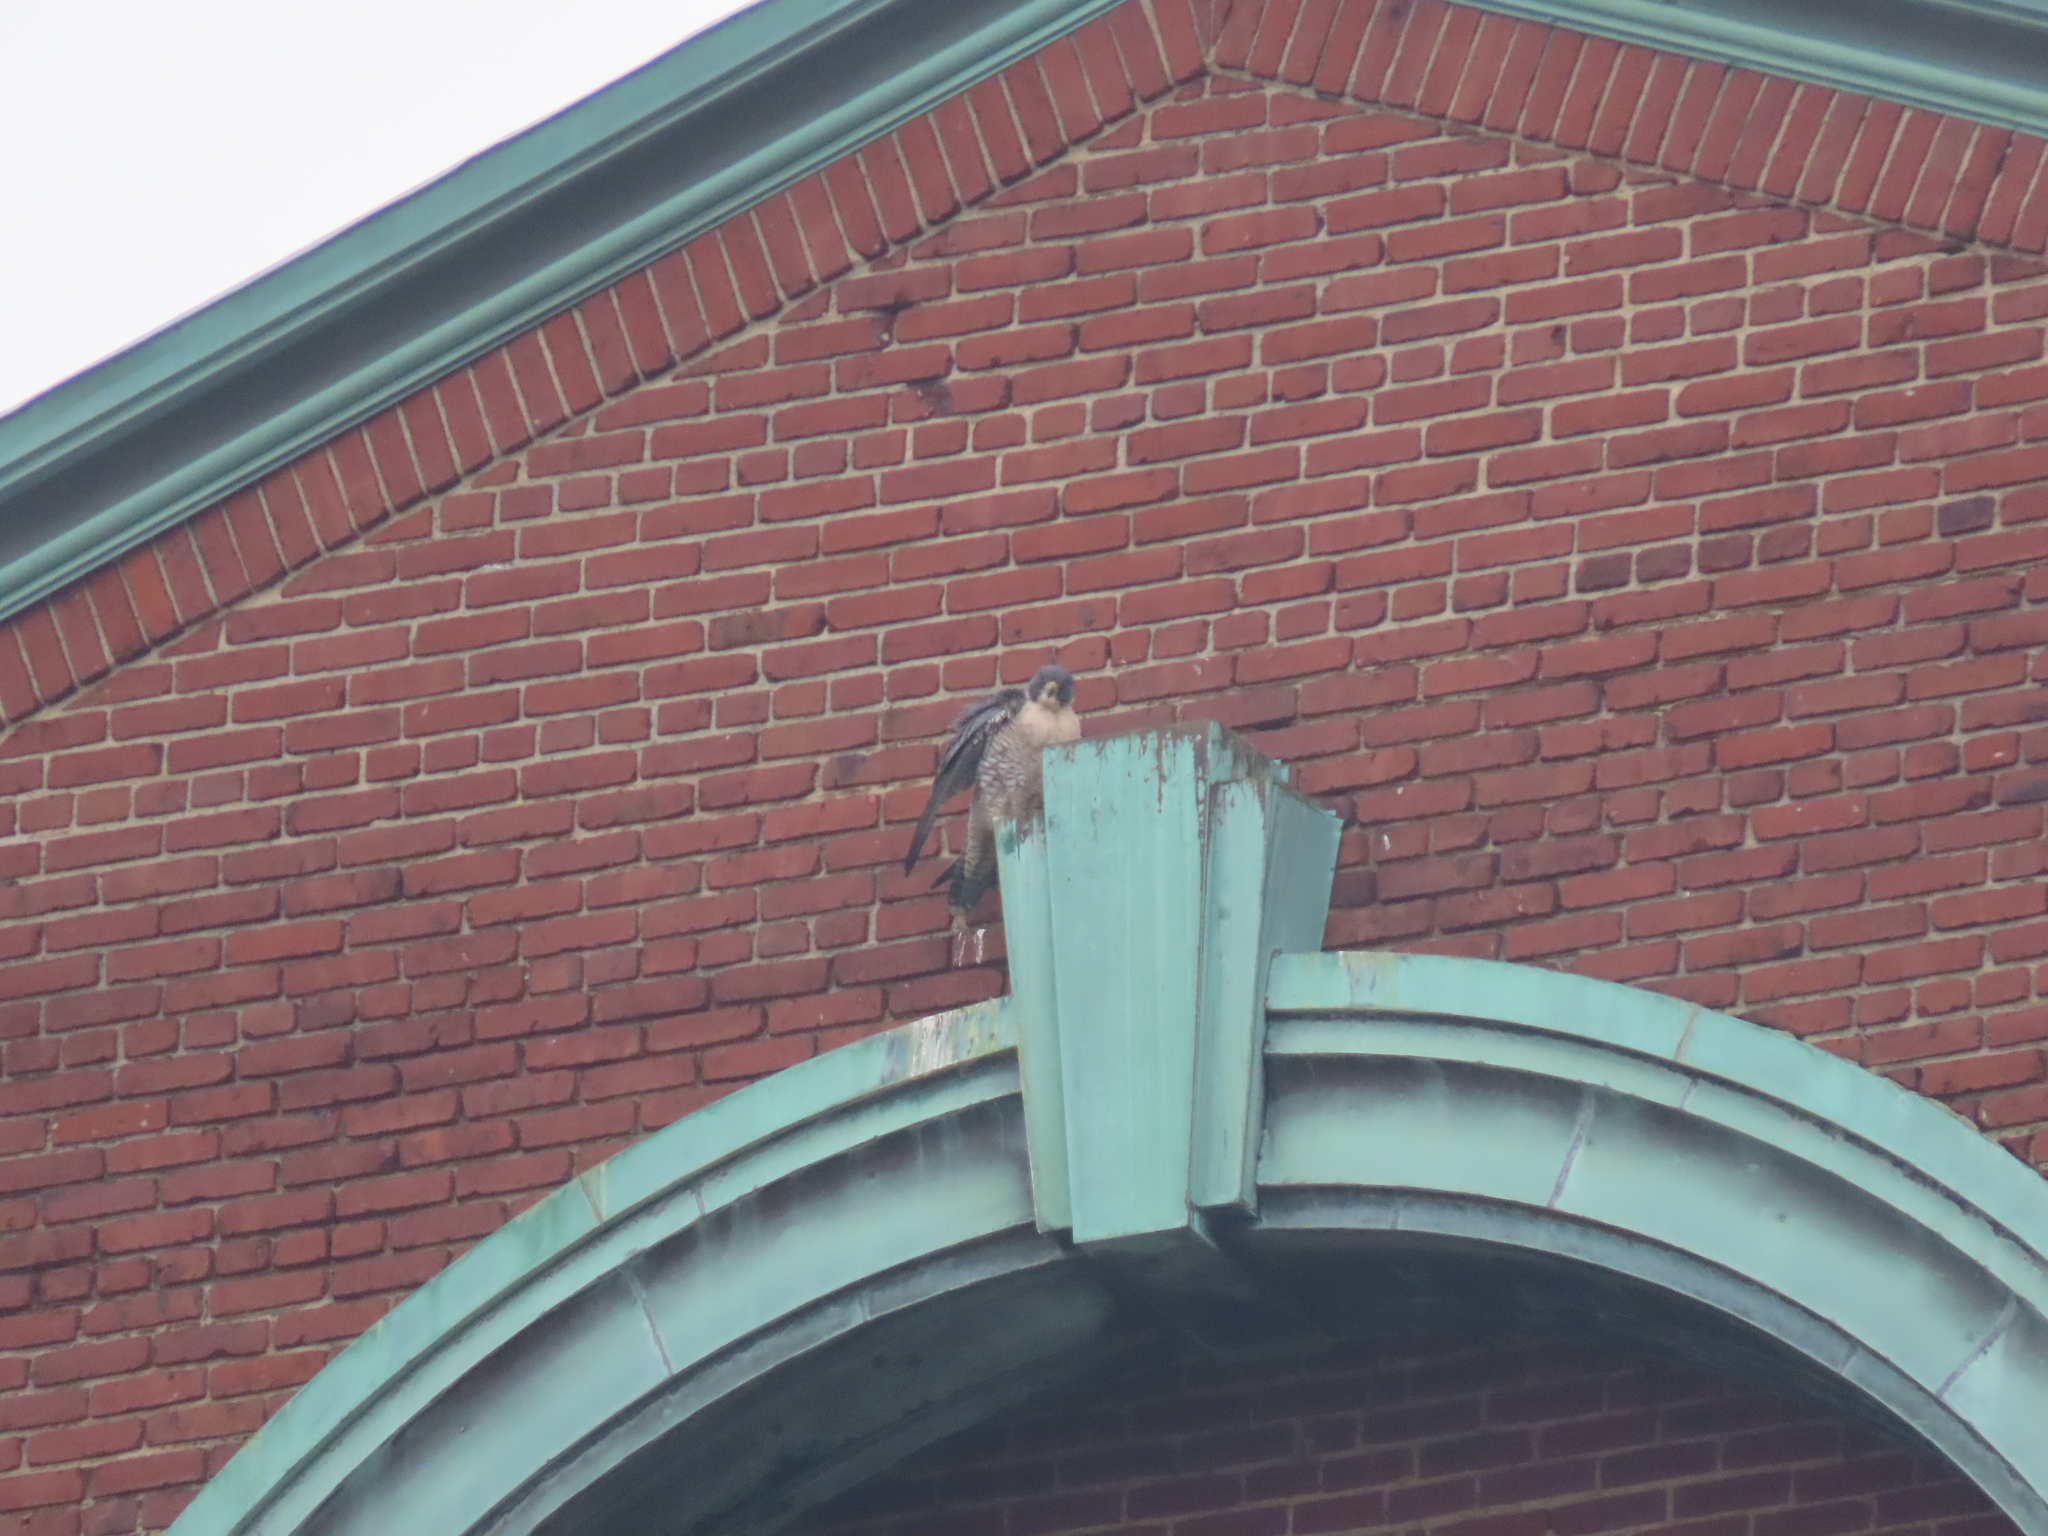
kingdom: Animalia
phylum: Chordata
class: Aves
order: Falconiformes
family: Falconidae
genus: Falco
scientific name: Falco peregrinus
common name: Peregrine falcon
